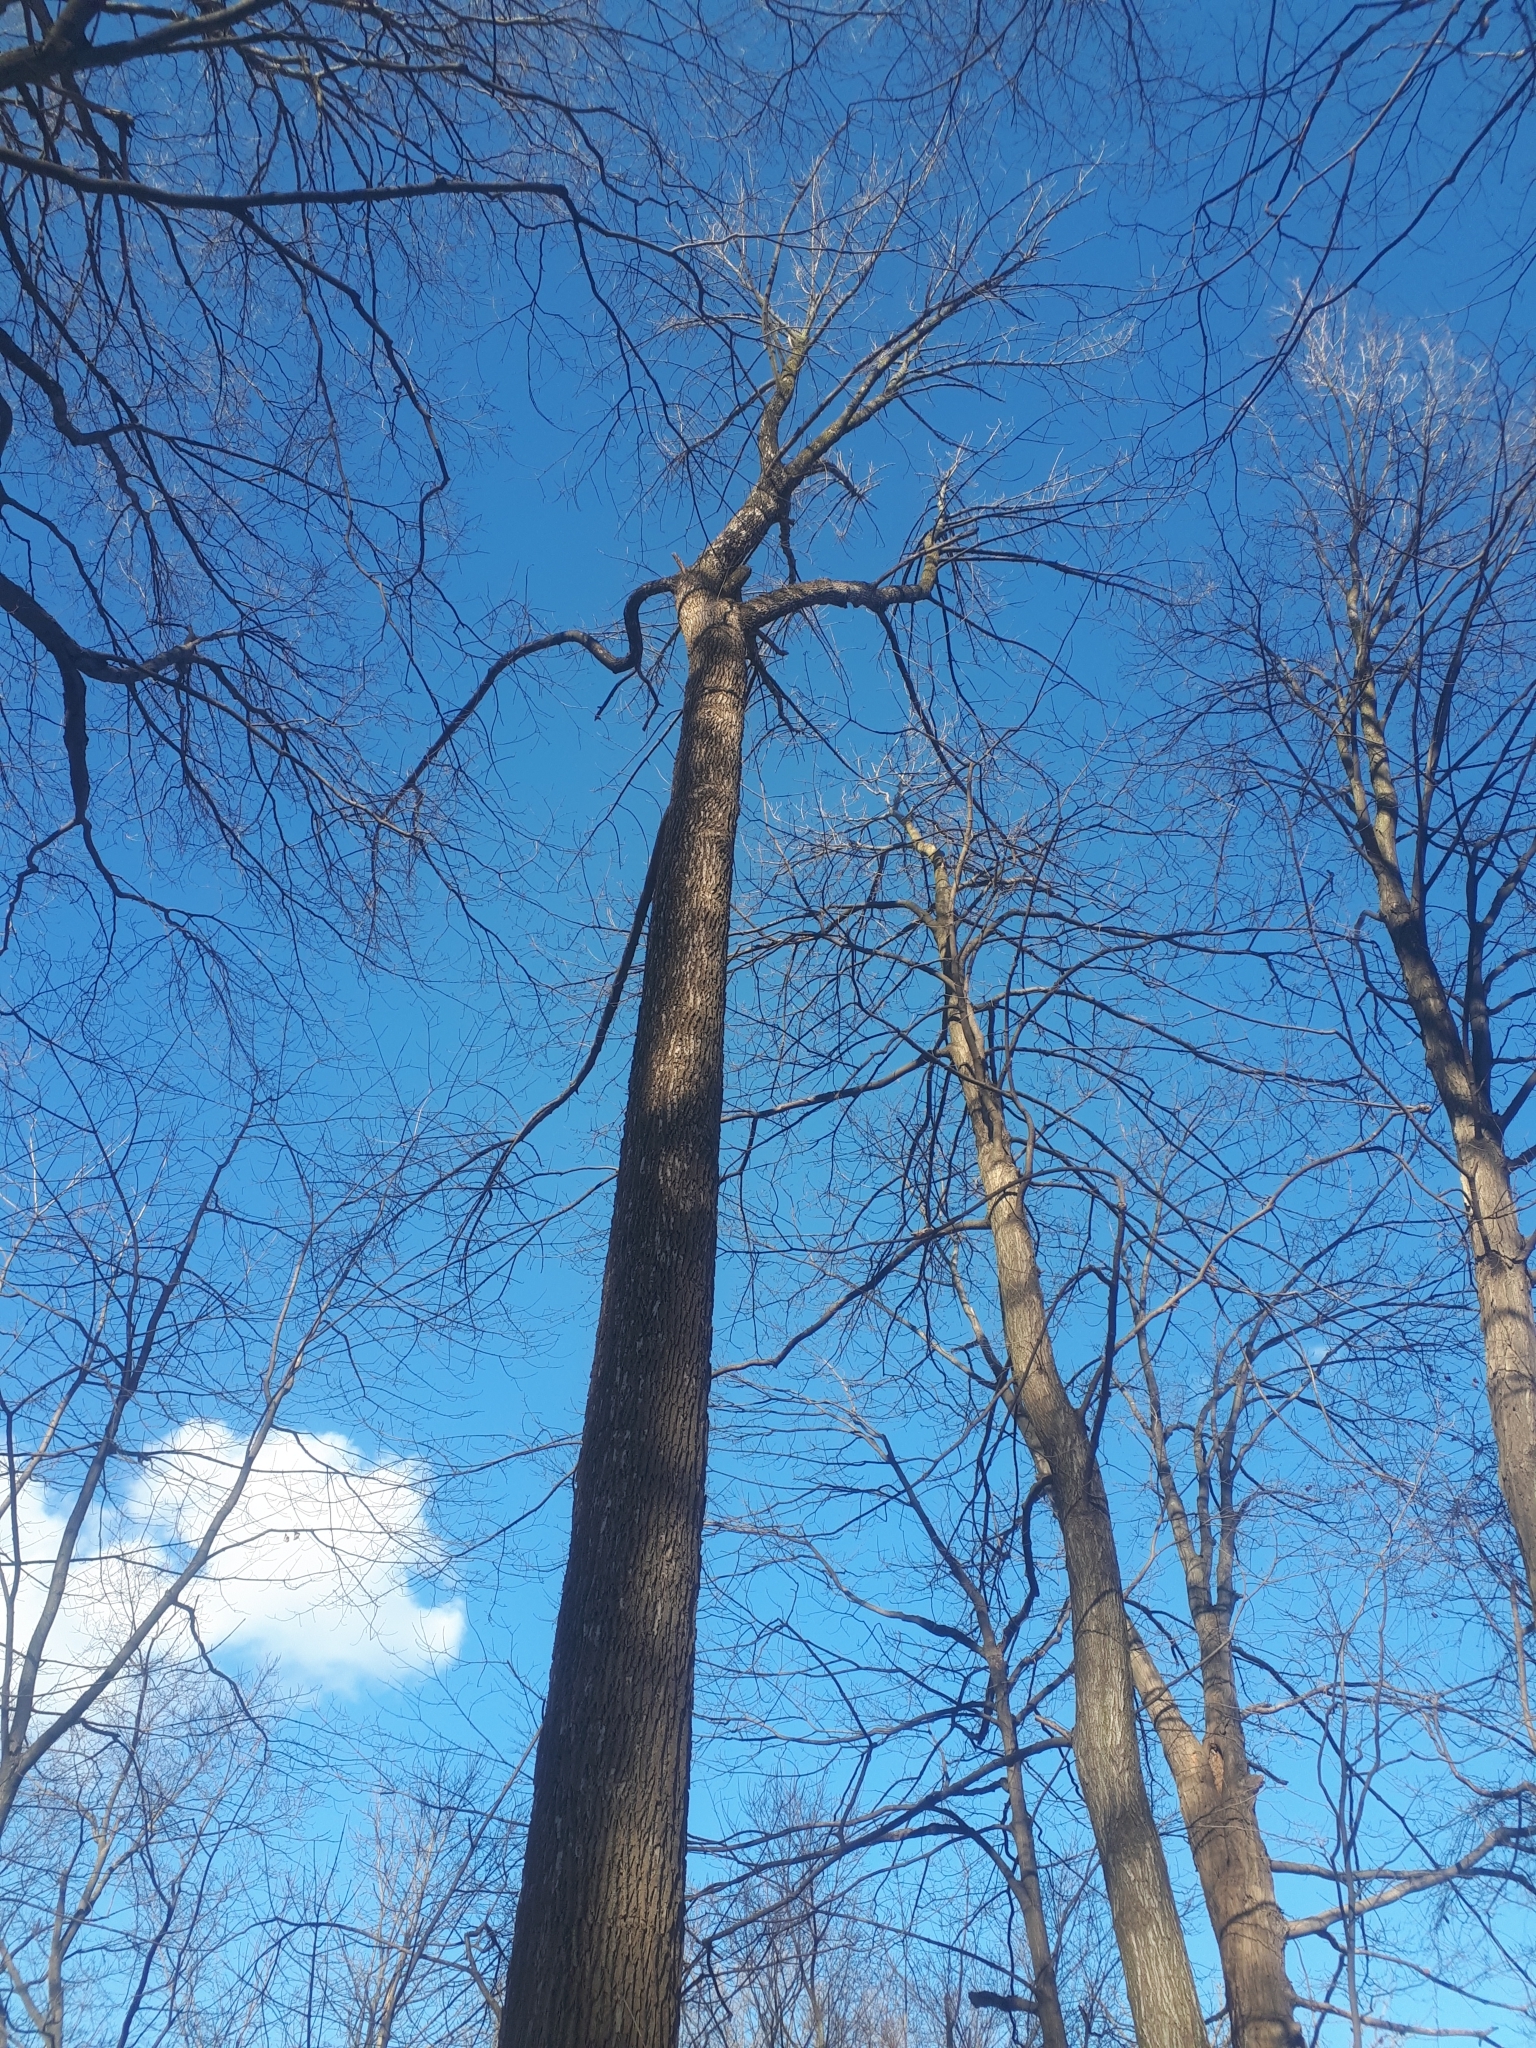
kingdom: Plantae
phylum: Tracheophyta
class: Magnoliopsida
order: Lamiales
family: Oleaceae
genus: Fraxinus
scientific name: Fraxinus americana
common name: White ash
